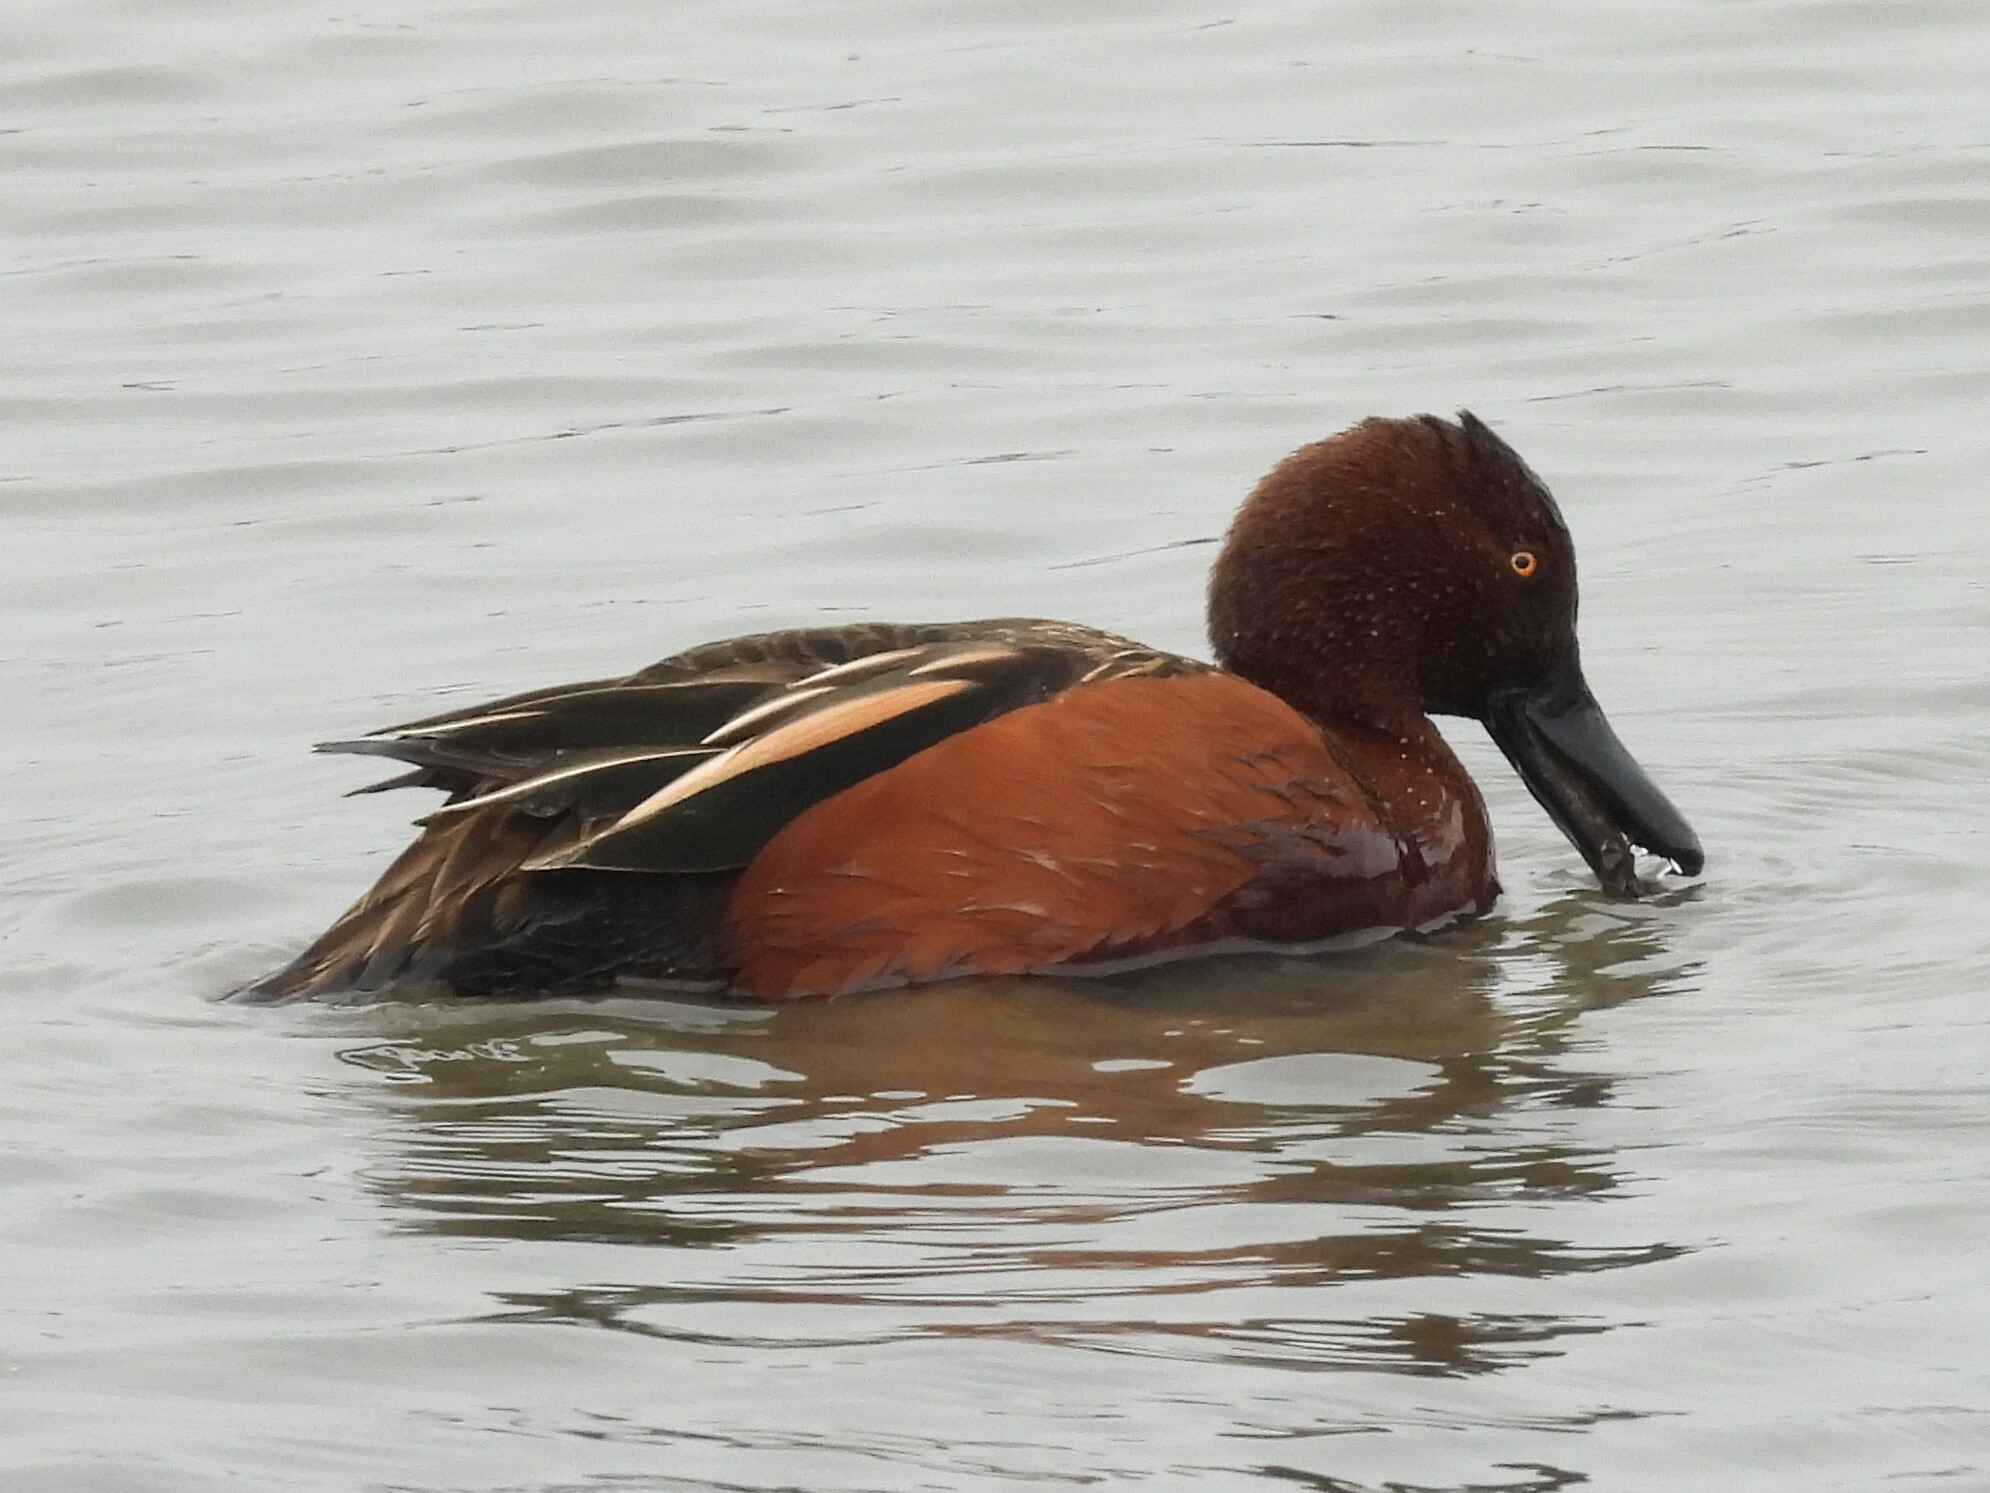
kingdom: Animalia
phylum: Chordata
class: Aves
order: Anseriformes
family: Anatidae
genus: Spatula
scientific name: Spatula cyanoptera
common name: Cinnamon teal
